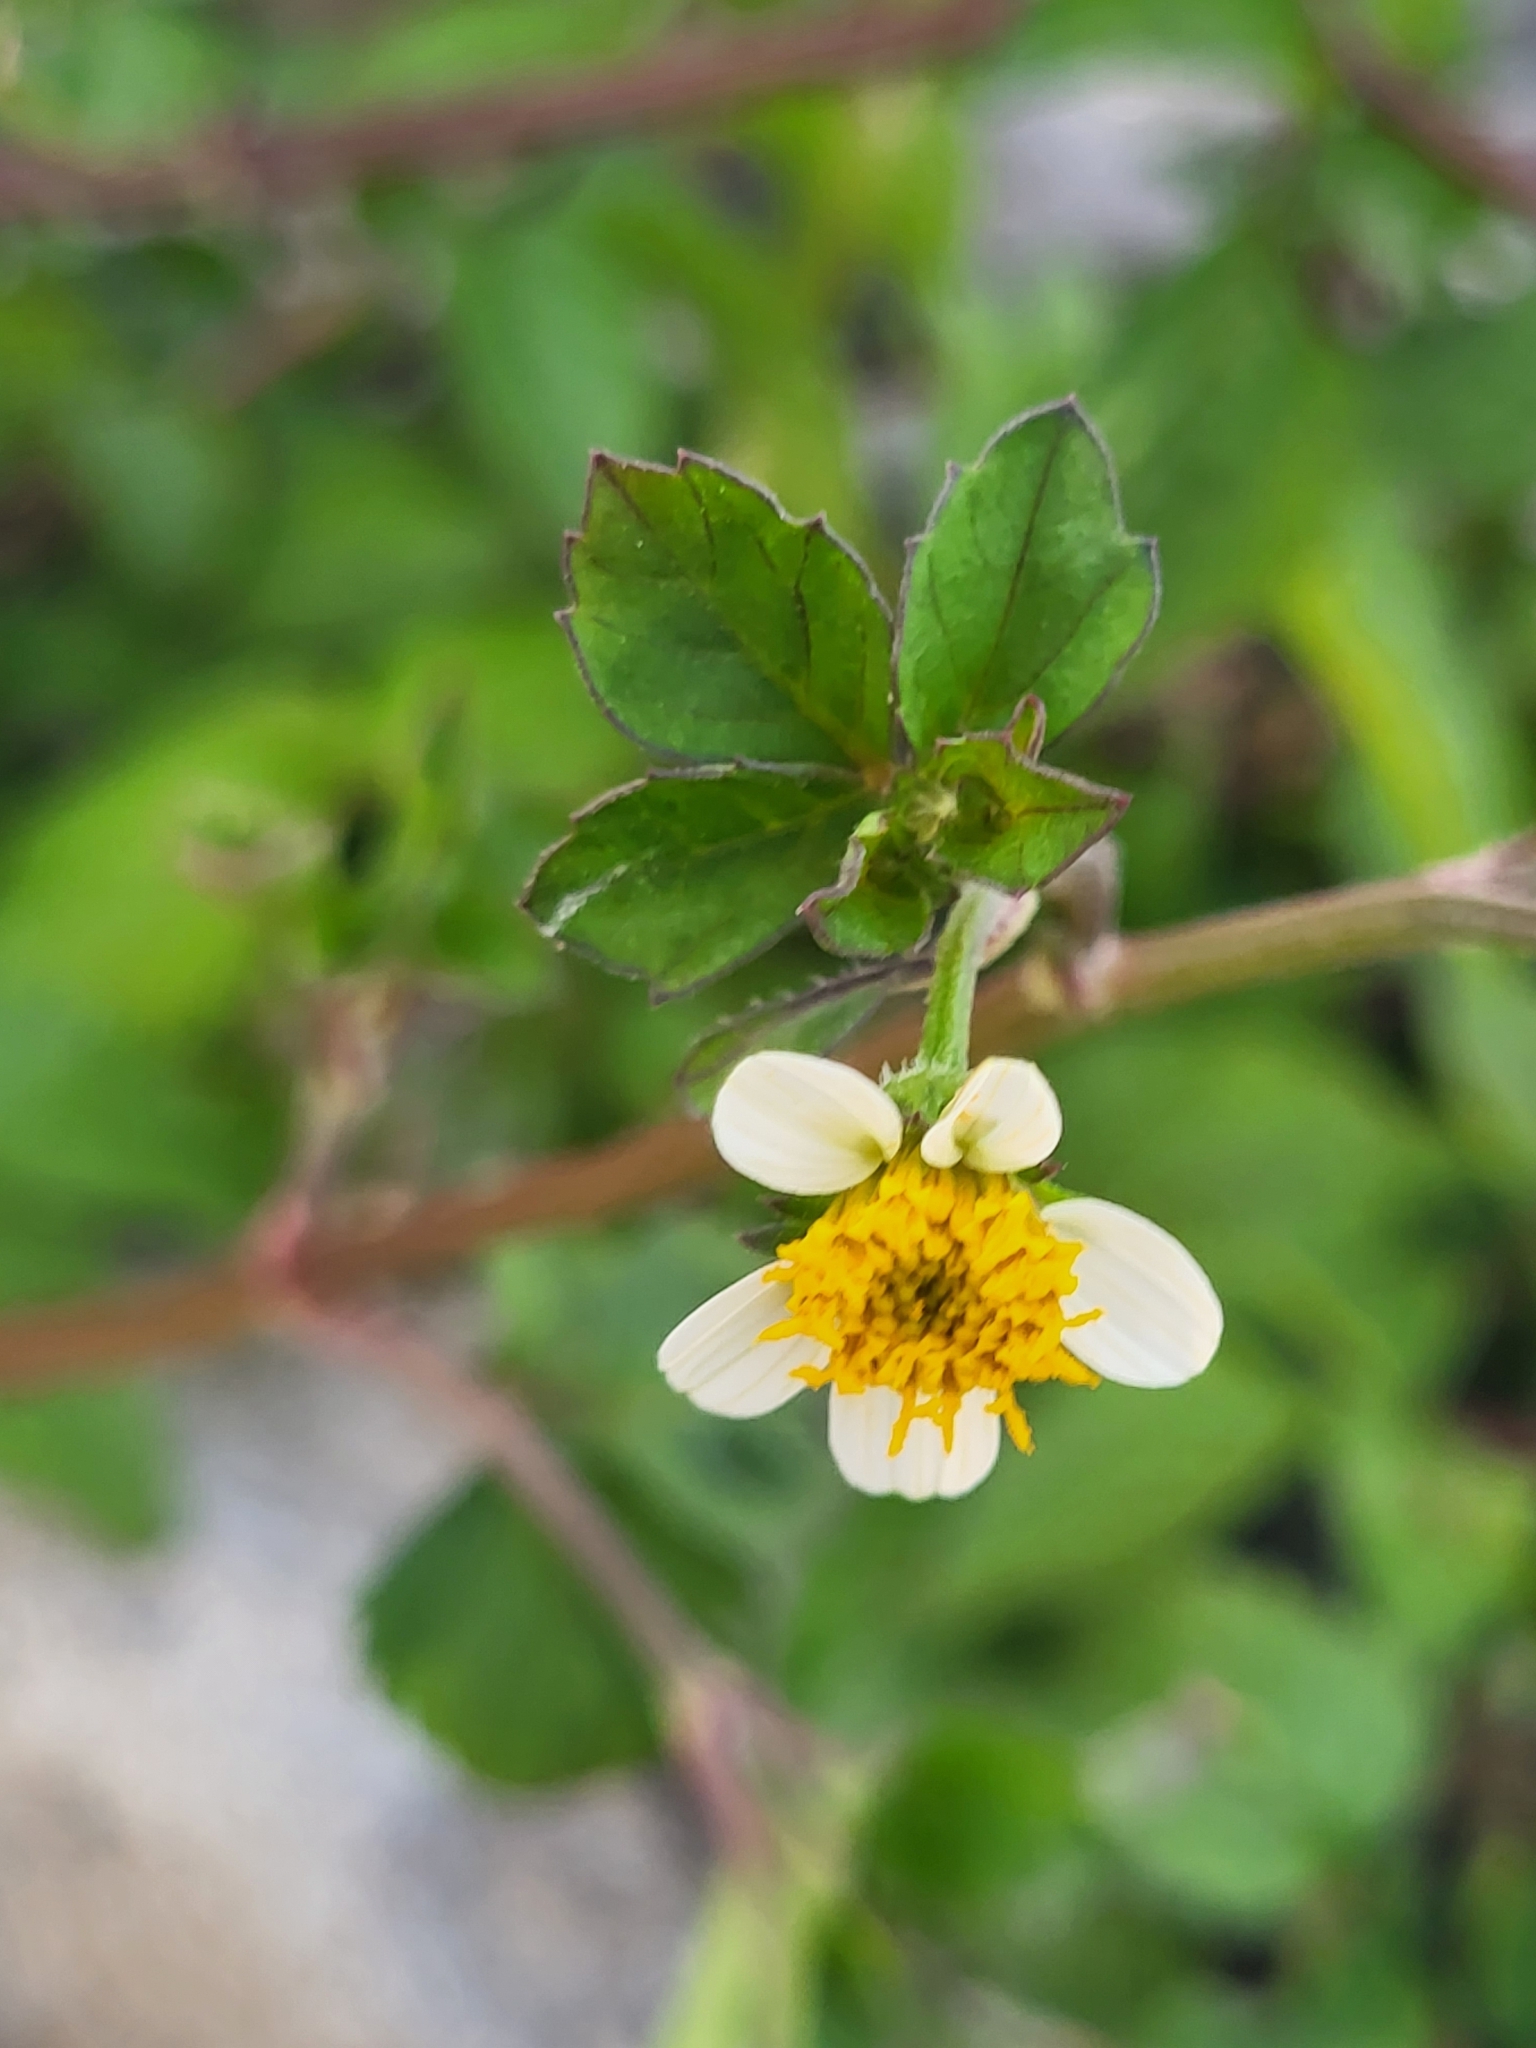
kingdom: Plantae
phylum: Tracheophyta
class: Magnoliopsida
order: Asterales
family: Asteraceae
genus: Bidens
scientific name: Bidens pilosa
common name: Black-jack
